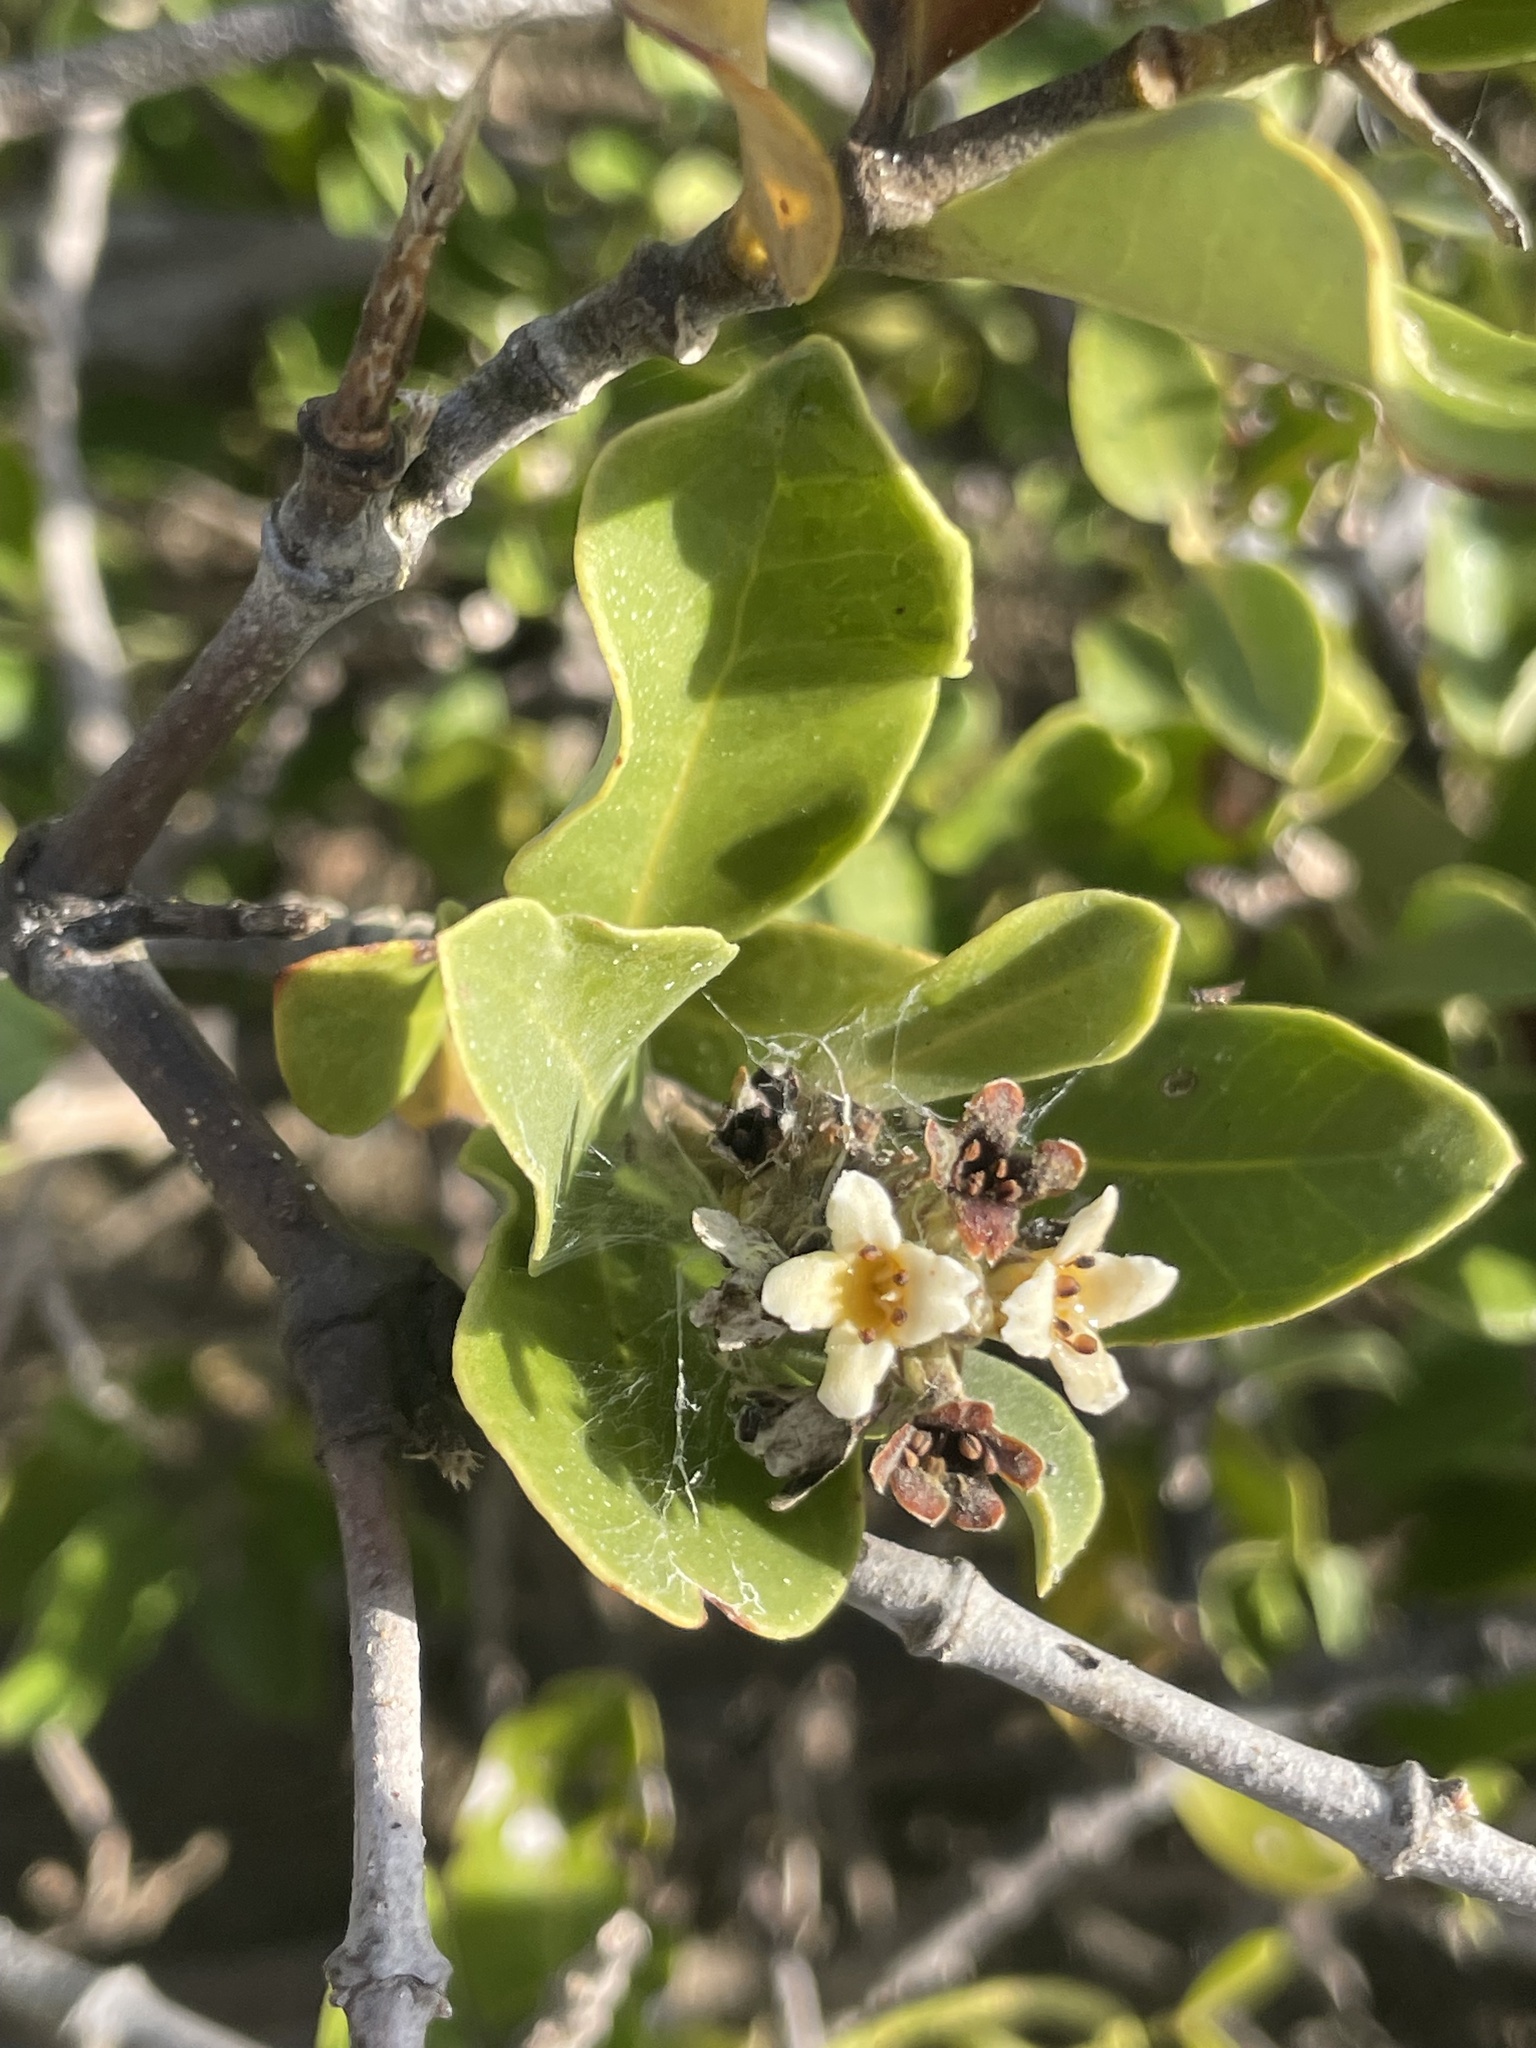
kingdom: Plantae
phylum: Tracheophyta
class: Magnoliopsida
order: Lamiales
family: Acanthaceae
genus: Avicennia
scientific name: Avicennia germinans
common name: Black mangrove
